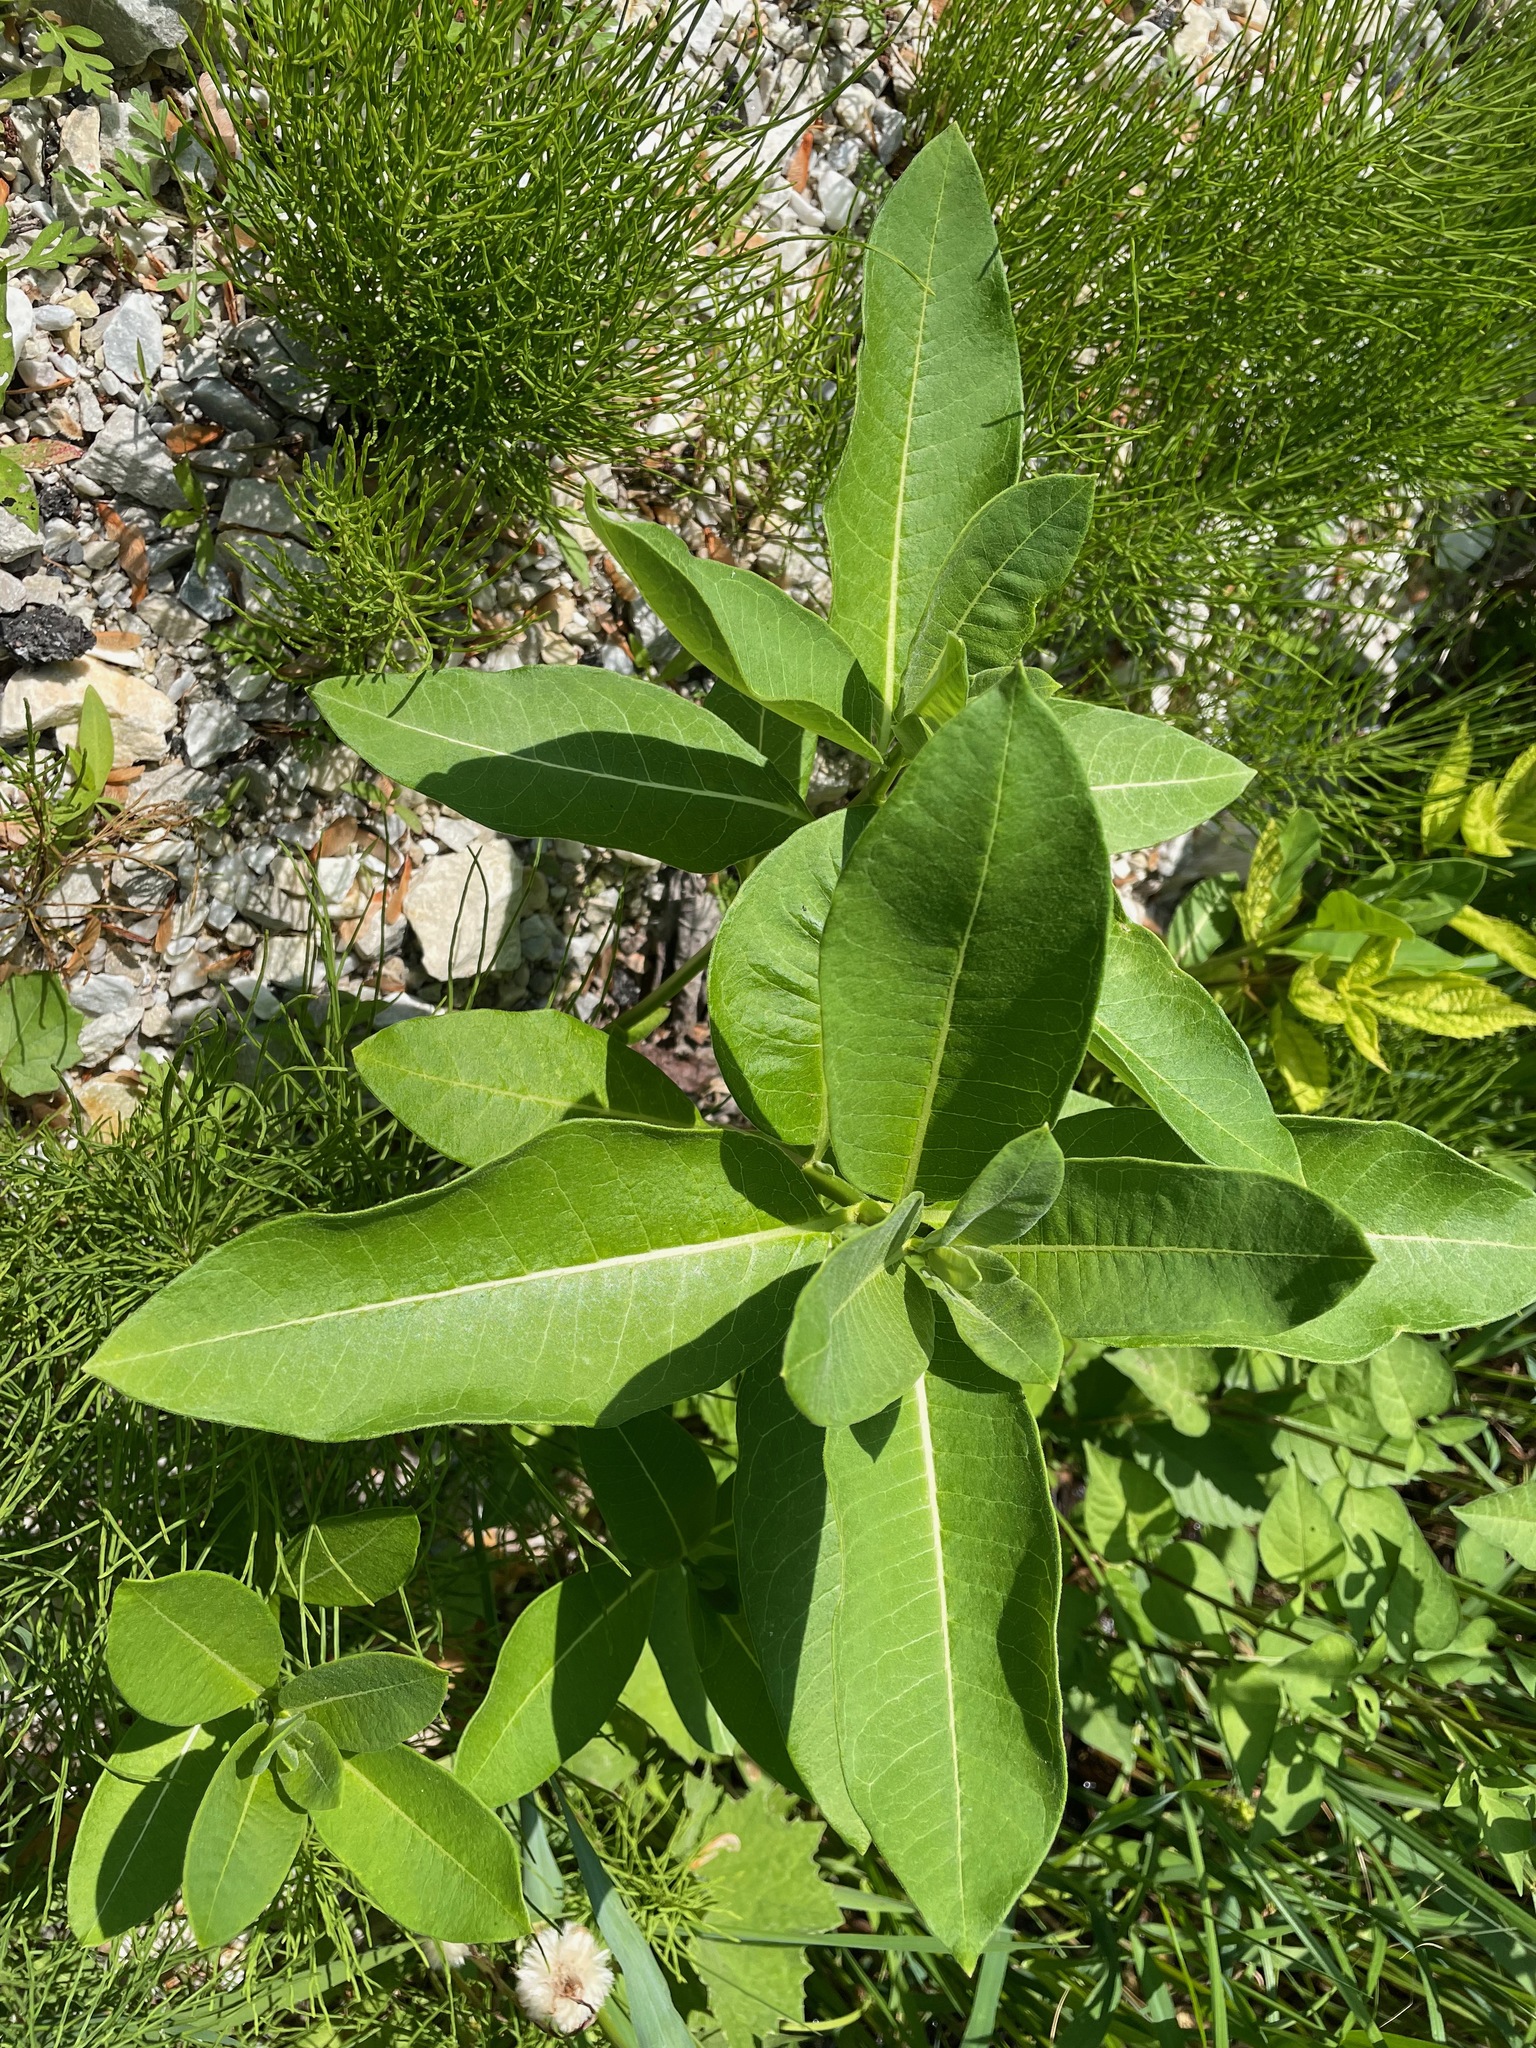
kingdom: Plantae
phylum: Tracheophyta
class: Magnoliopsida
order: Gentianales
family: Apocynaceae
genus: Asclepias
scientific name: Asclepias syriaca
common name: Common milkweed
